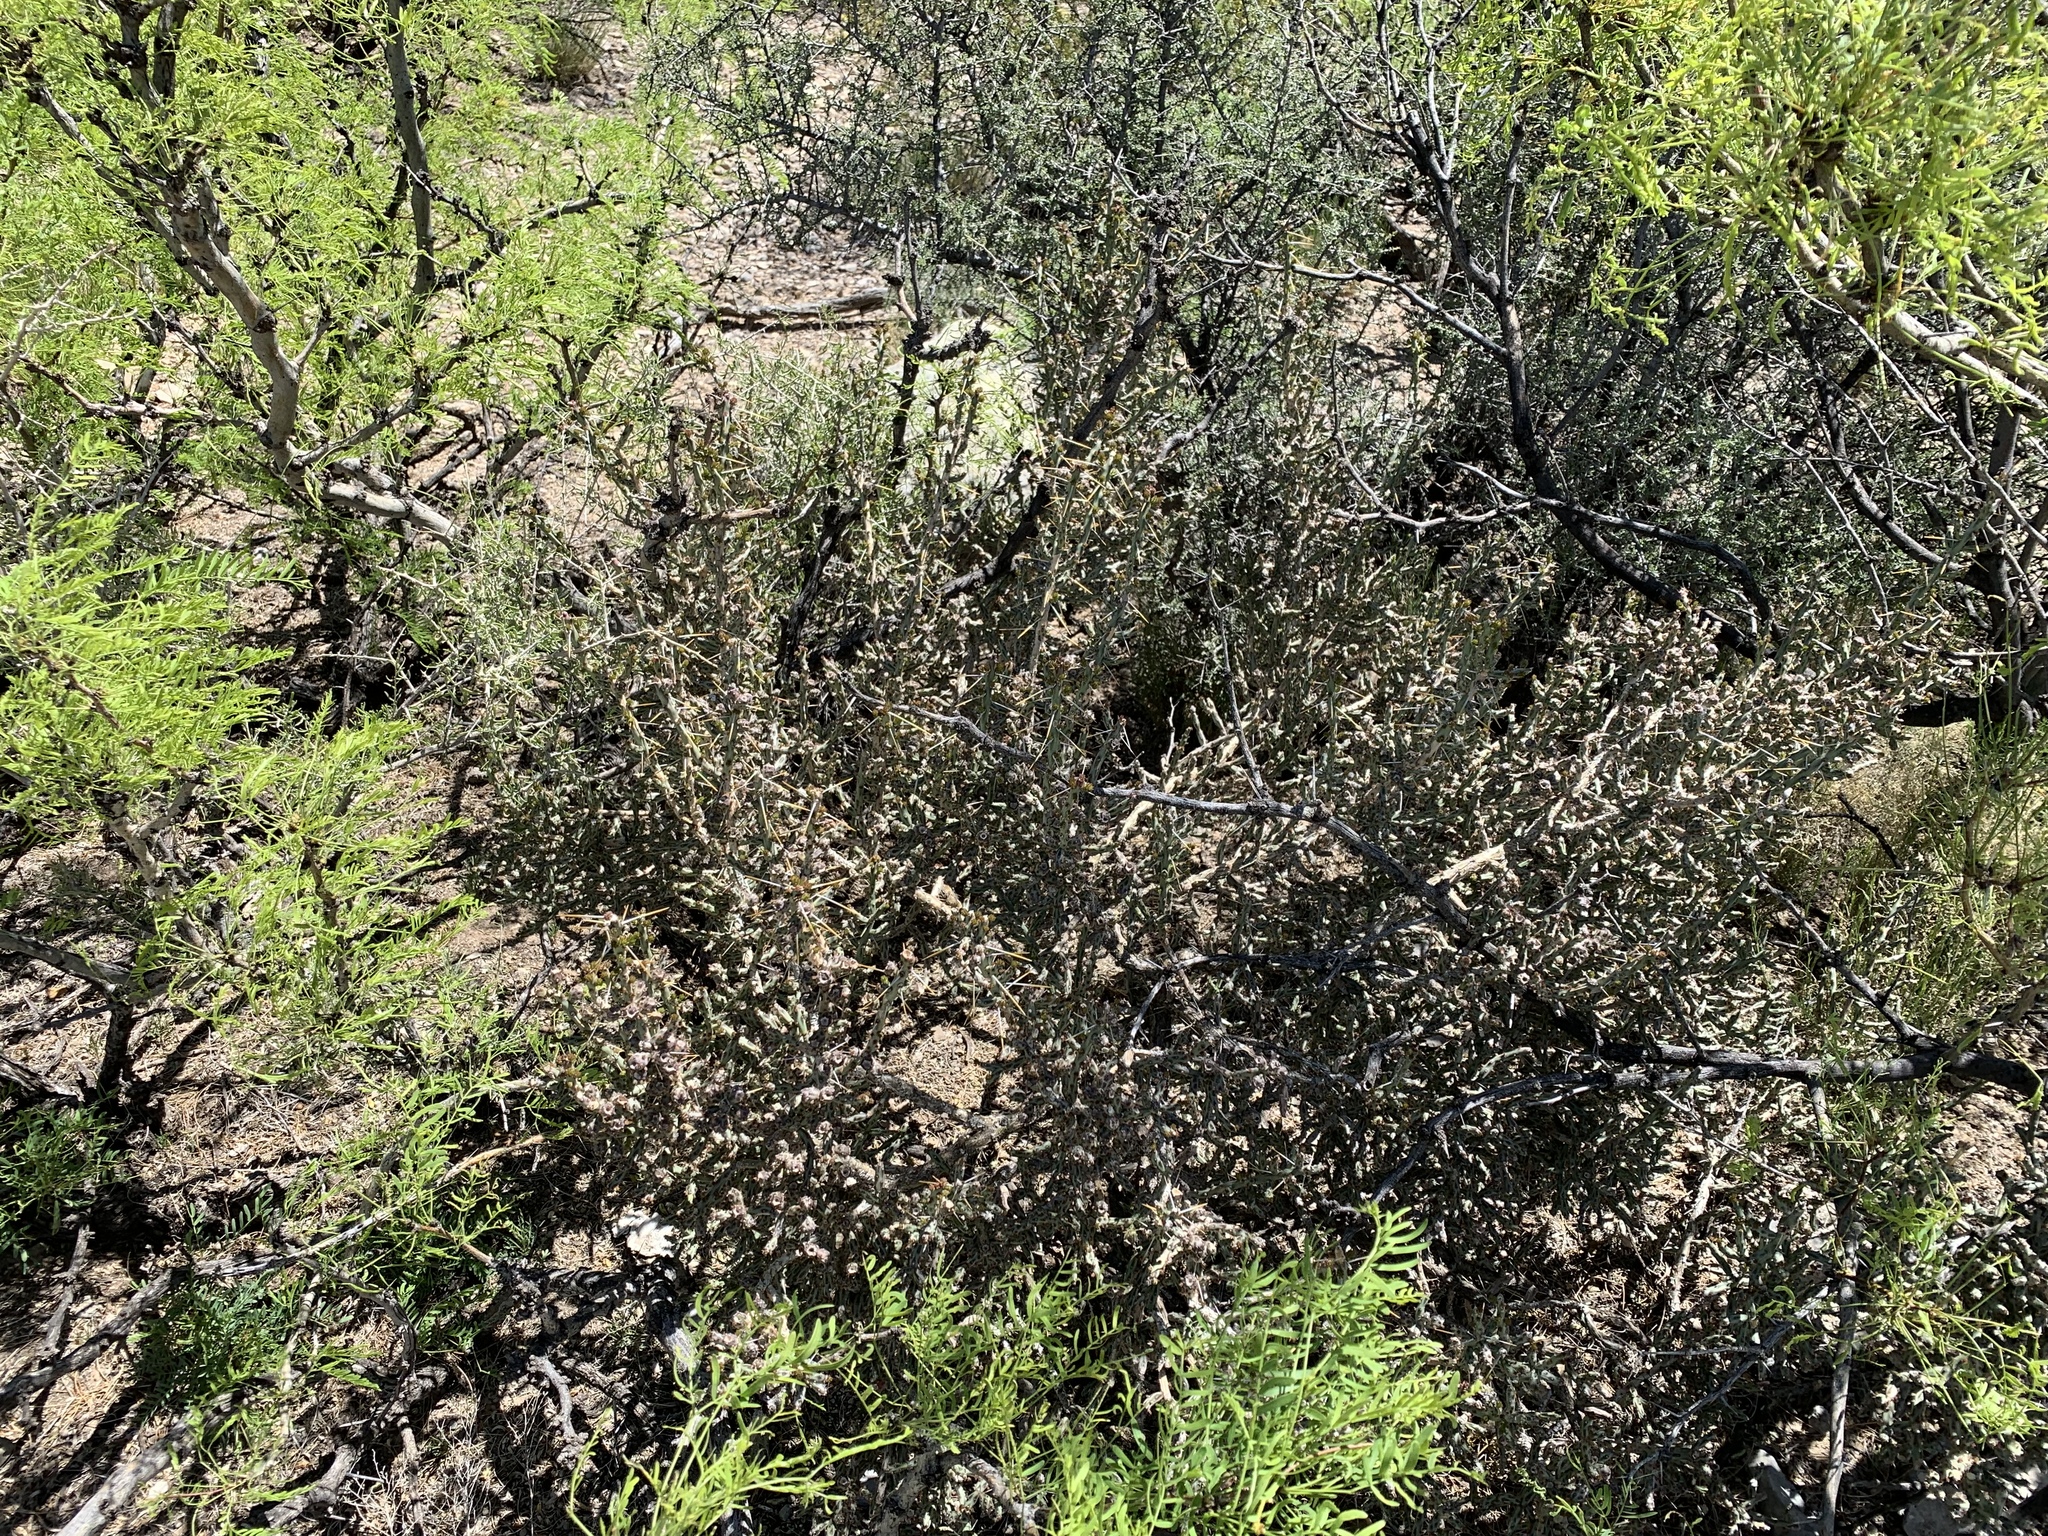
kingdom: Plantae
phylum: Tracheophyta
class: Magnoliopsida
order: Caryophyllales
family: Cactaceae
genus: Cylindropuntia
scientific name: Cylindropuntia leptocaulis
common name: Christmas cactus
